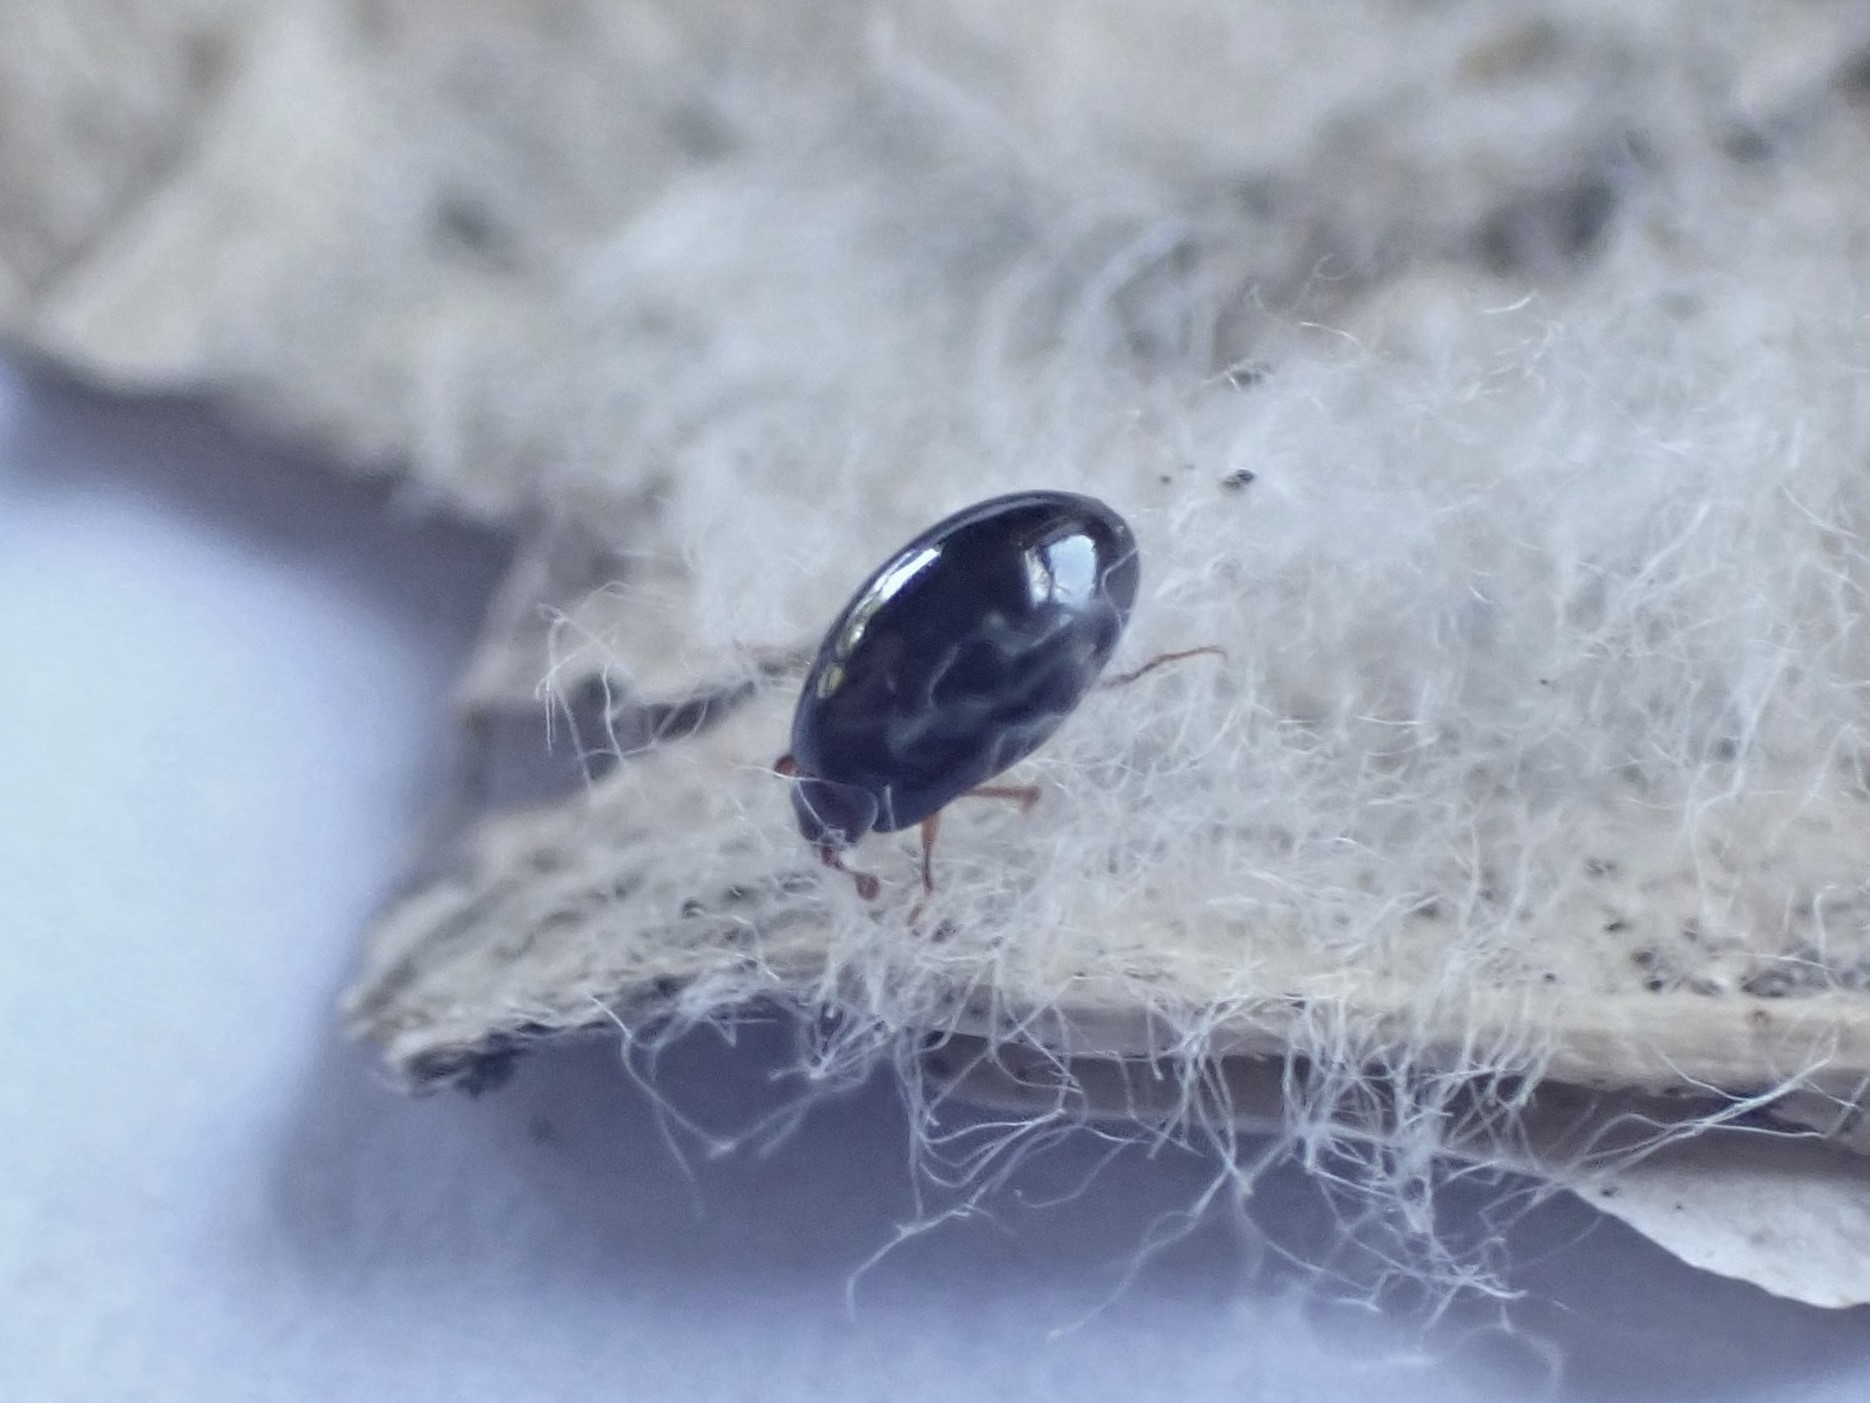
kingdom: Animalia
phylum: Arthropoda
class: Insecta
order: Coleoptera
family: Cerylonidae
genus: Hypodacnella
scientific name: Hypodacnella
